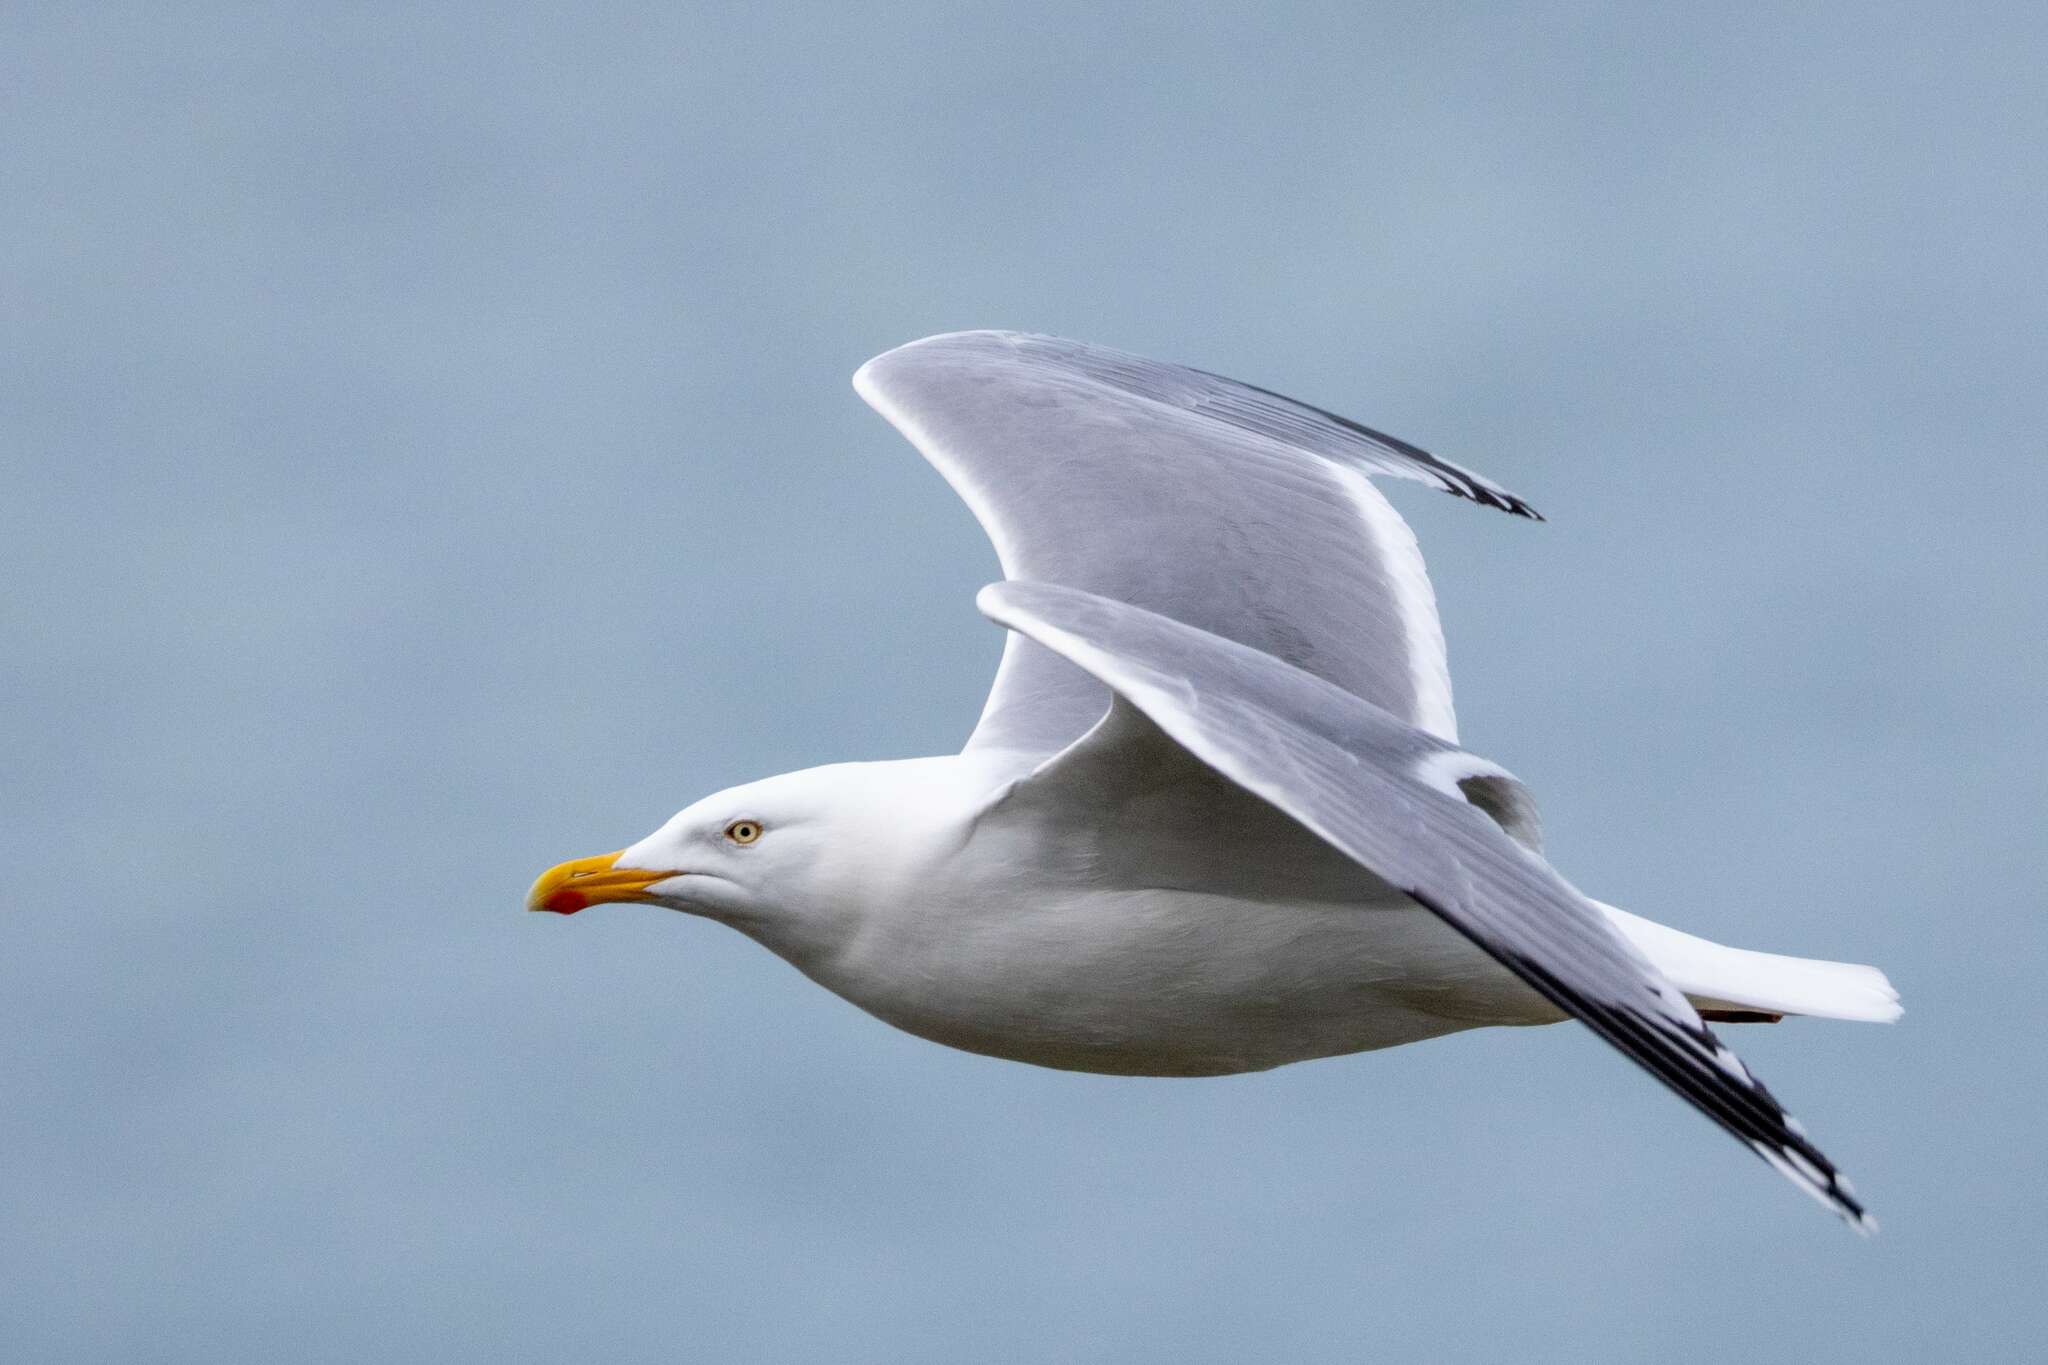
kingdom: Animalia
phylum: Chordata
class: Aves
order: Charadriiformes
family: Laridae
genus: Larus
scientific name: Larus argentatus
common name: Herring gull
